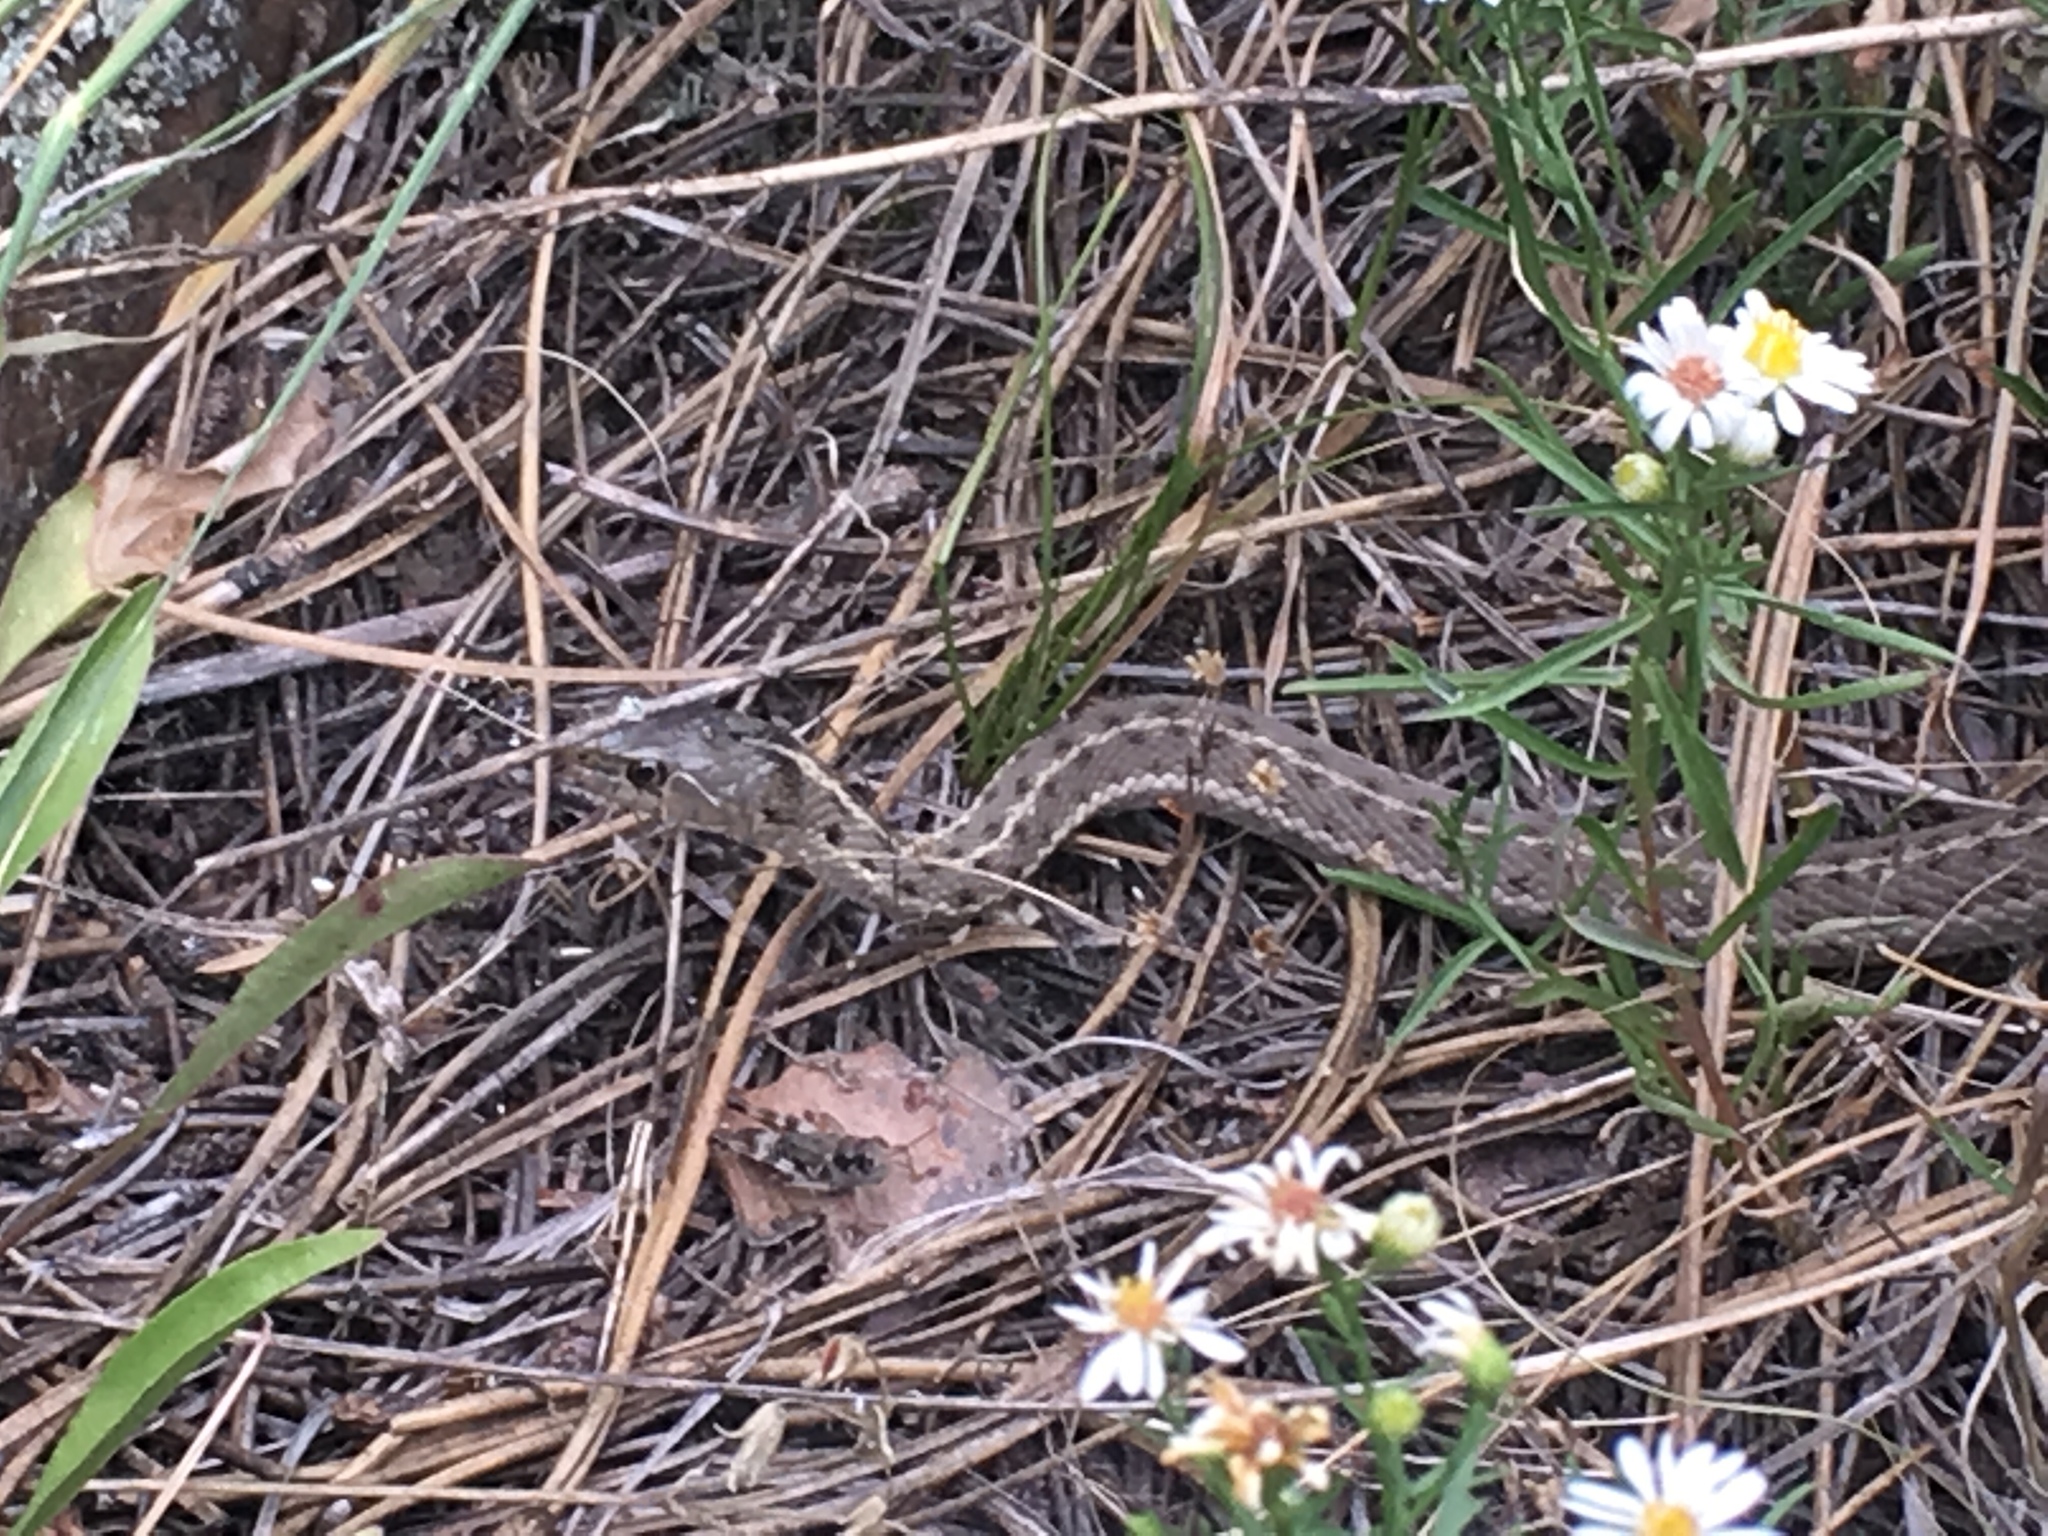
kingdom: Animalia
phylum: Chordata
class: Squamata
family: Colubridae
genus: Thamnophis
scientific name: Thamnophis elegans
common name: Western terrestrial garter snake
